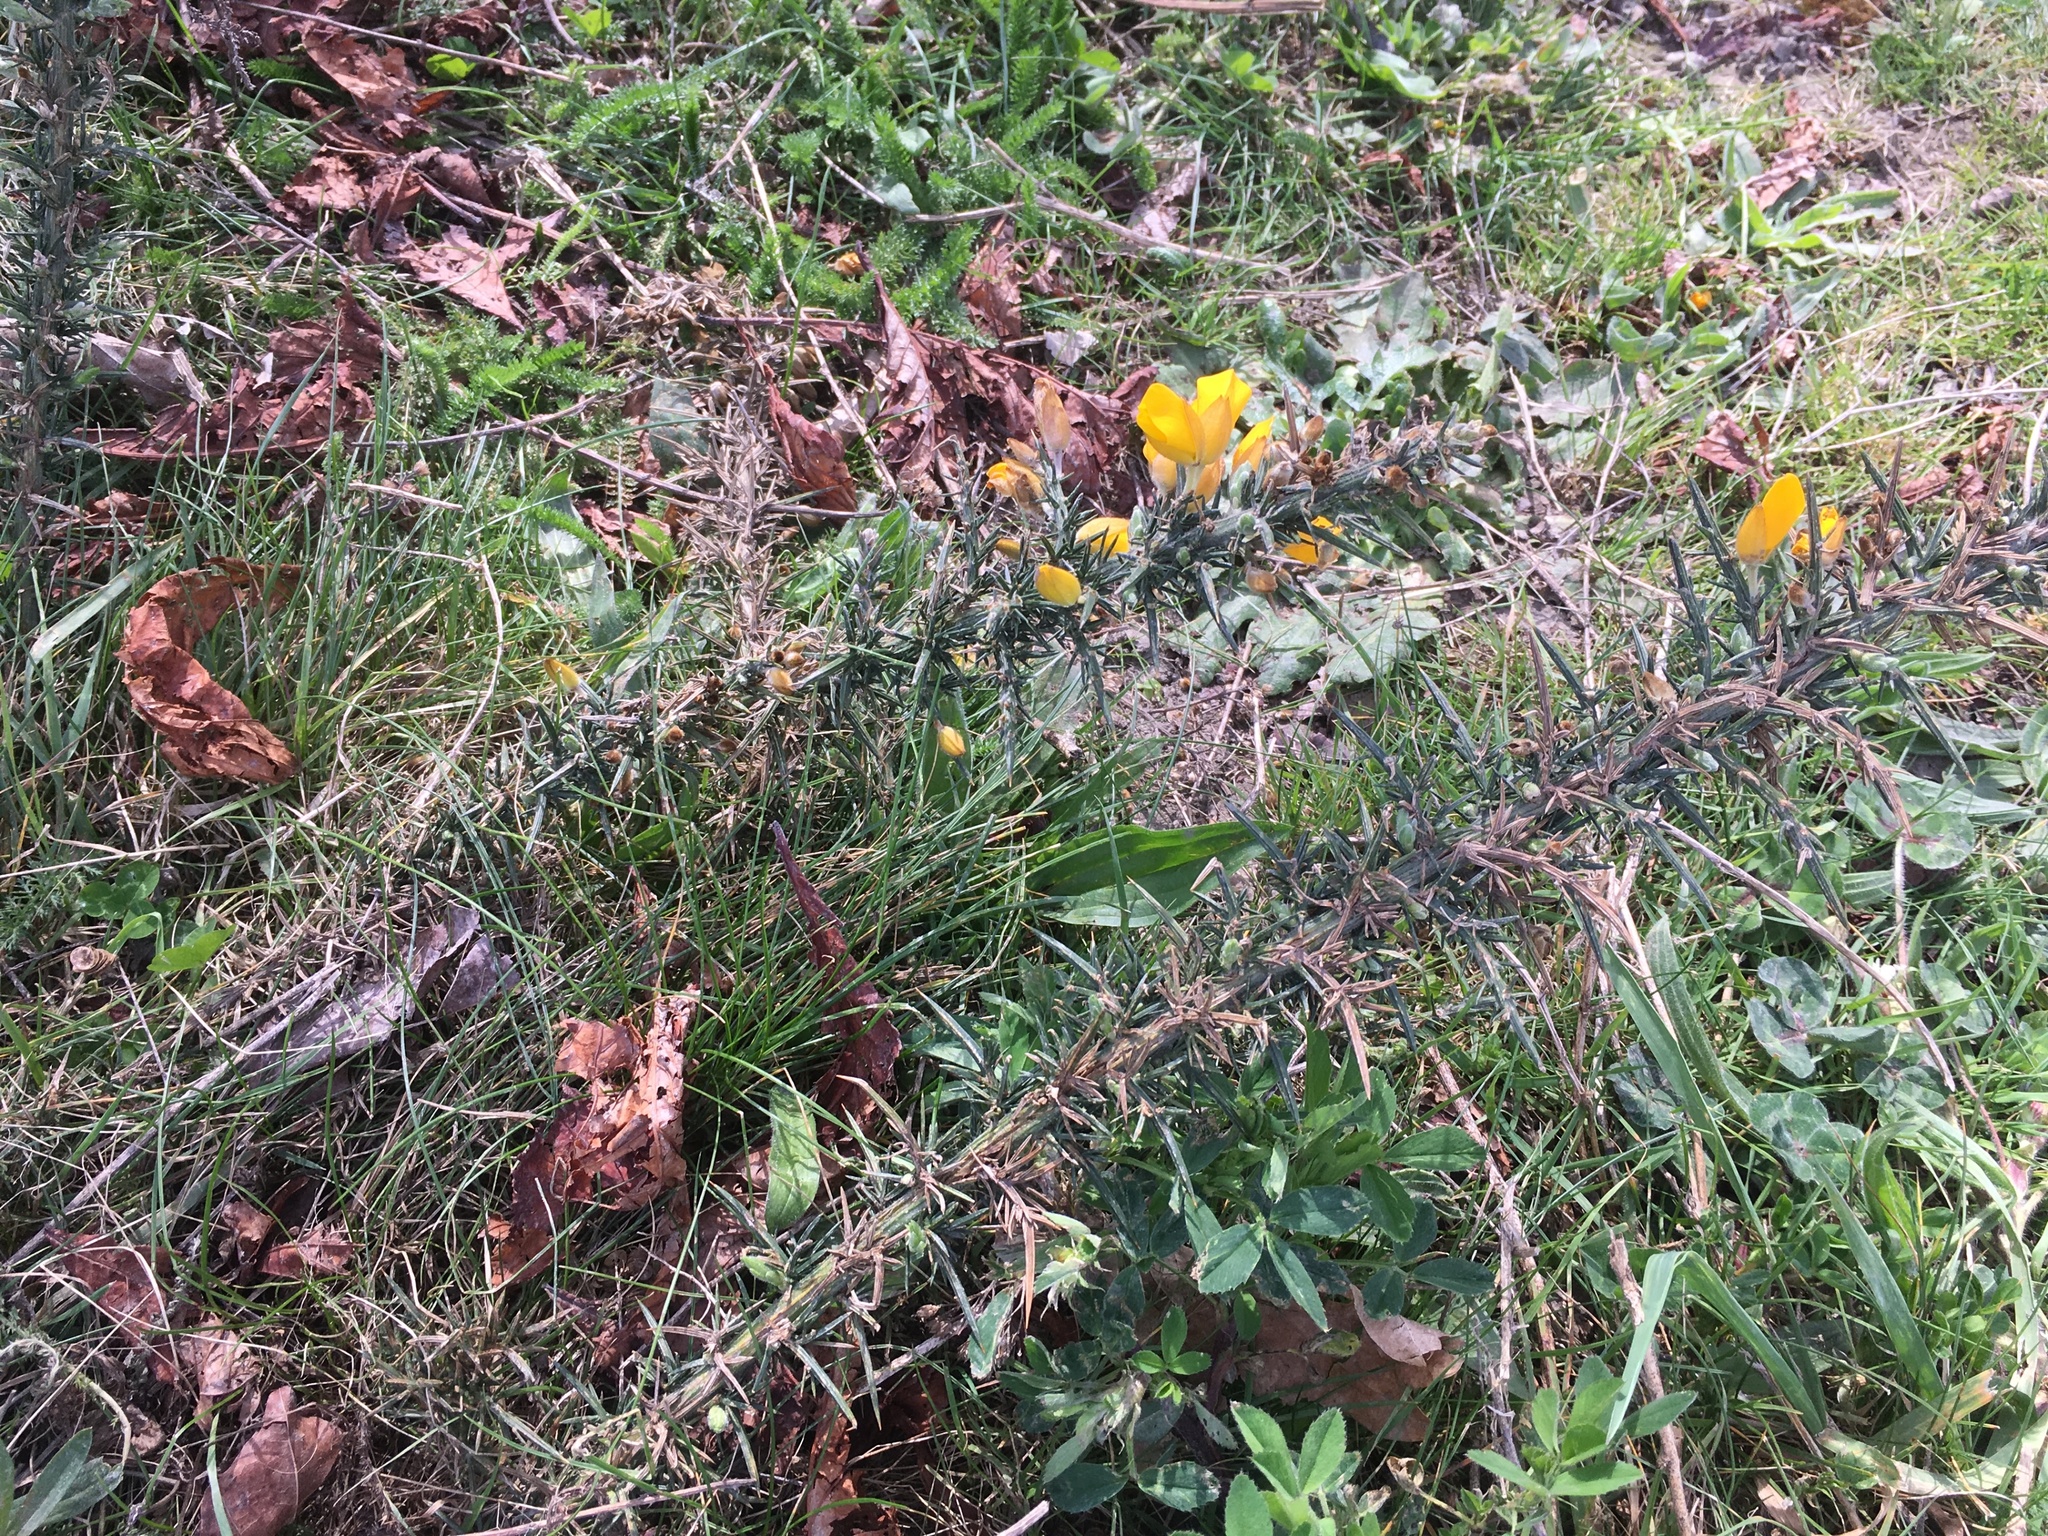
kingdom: Plantae
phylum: Tracheophyta
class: Magnoliopsida
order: Fabales
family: Fabaceae
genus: Ulex
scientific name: Ulex europaeus
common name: Common gorse
